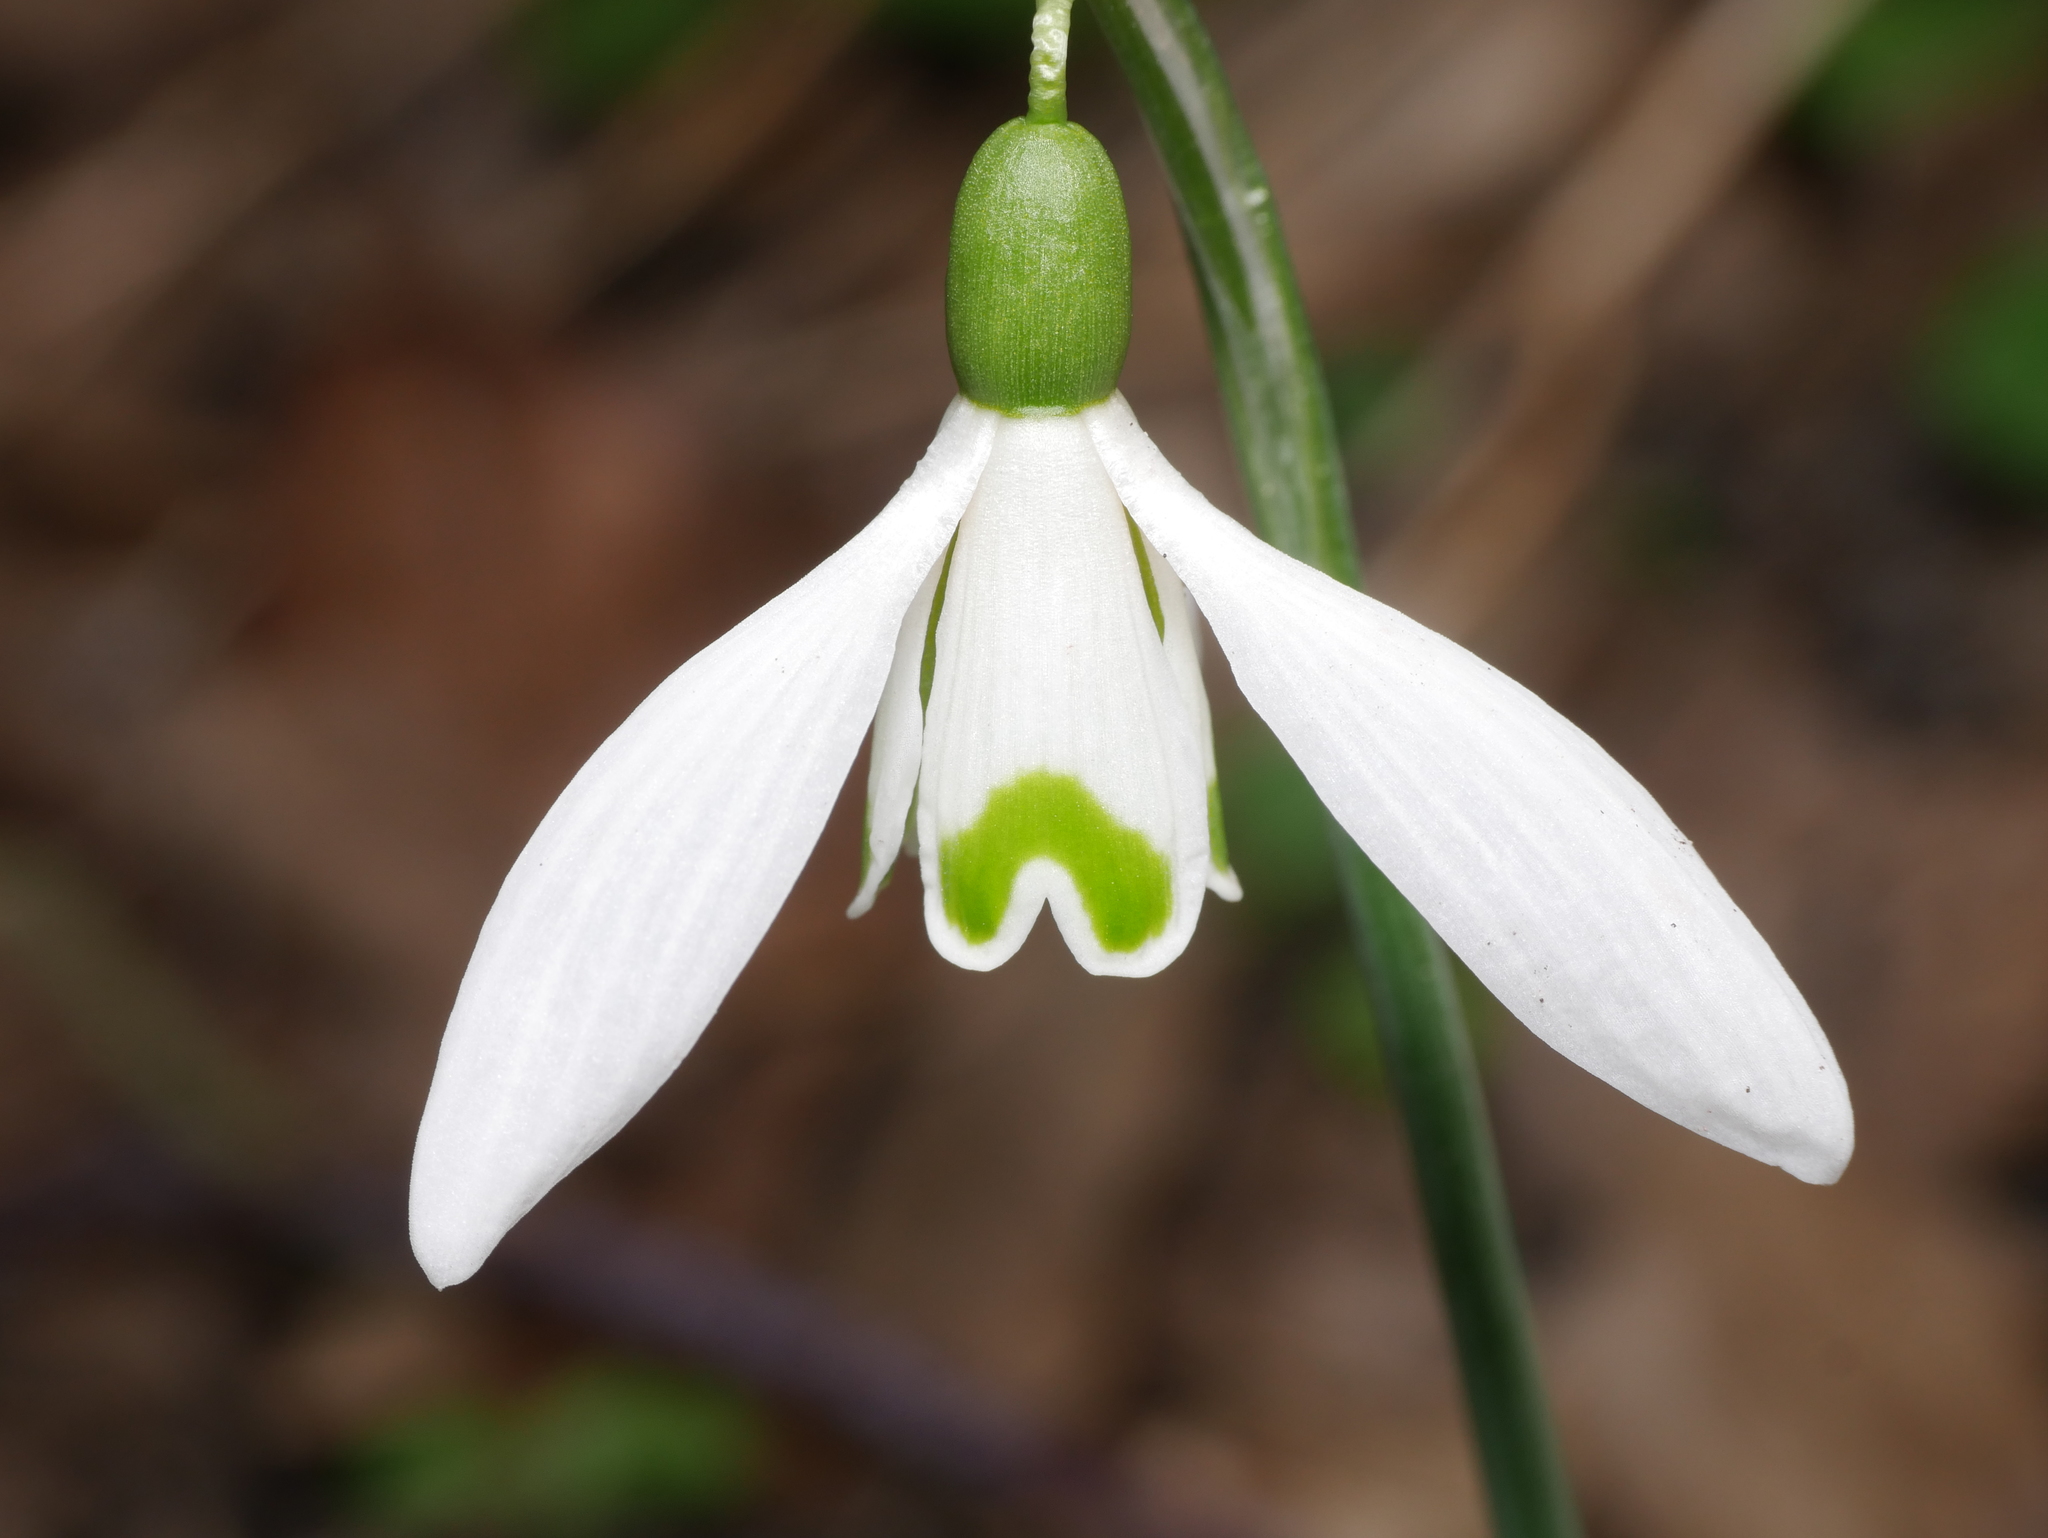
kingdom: Plantae
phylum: Tracheophyta
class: Liliopsida
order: Asparagales
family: Amaryllidaceae
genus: Galanthus
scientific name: Galanthus nivalis
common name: Snowdrop
